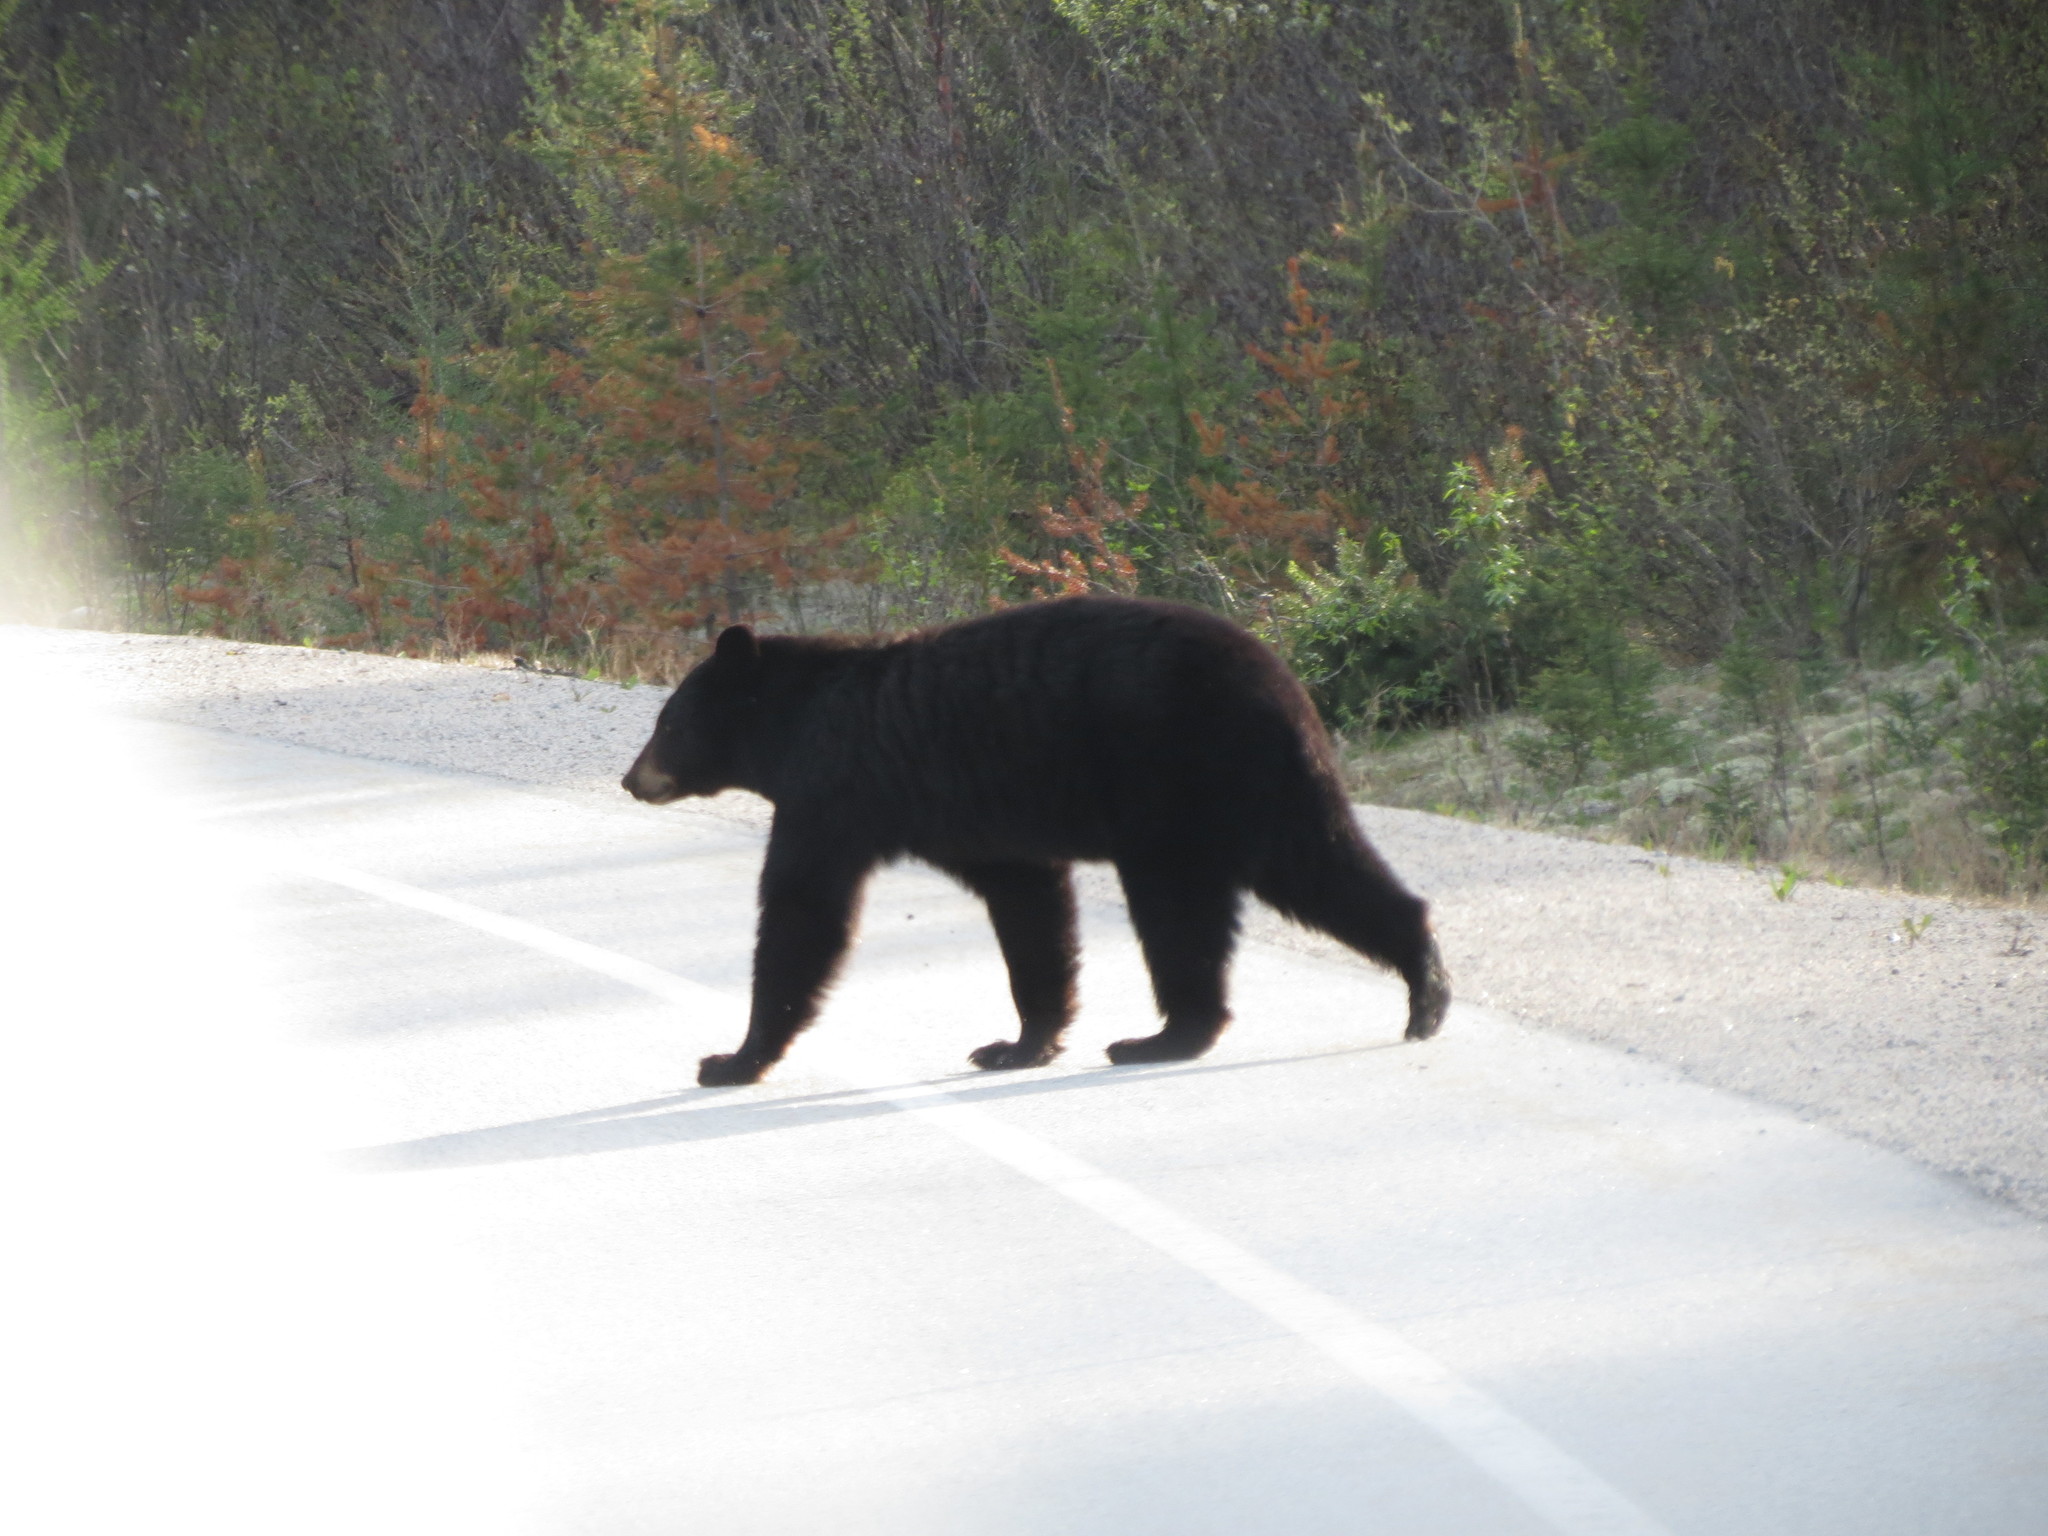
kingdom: Animalia
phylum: Chordata
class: Mammalia
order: Carnivora
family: Ursidae
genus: Ursus
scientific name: Ursus americanus
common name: American black bear
